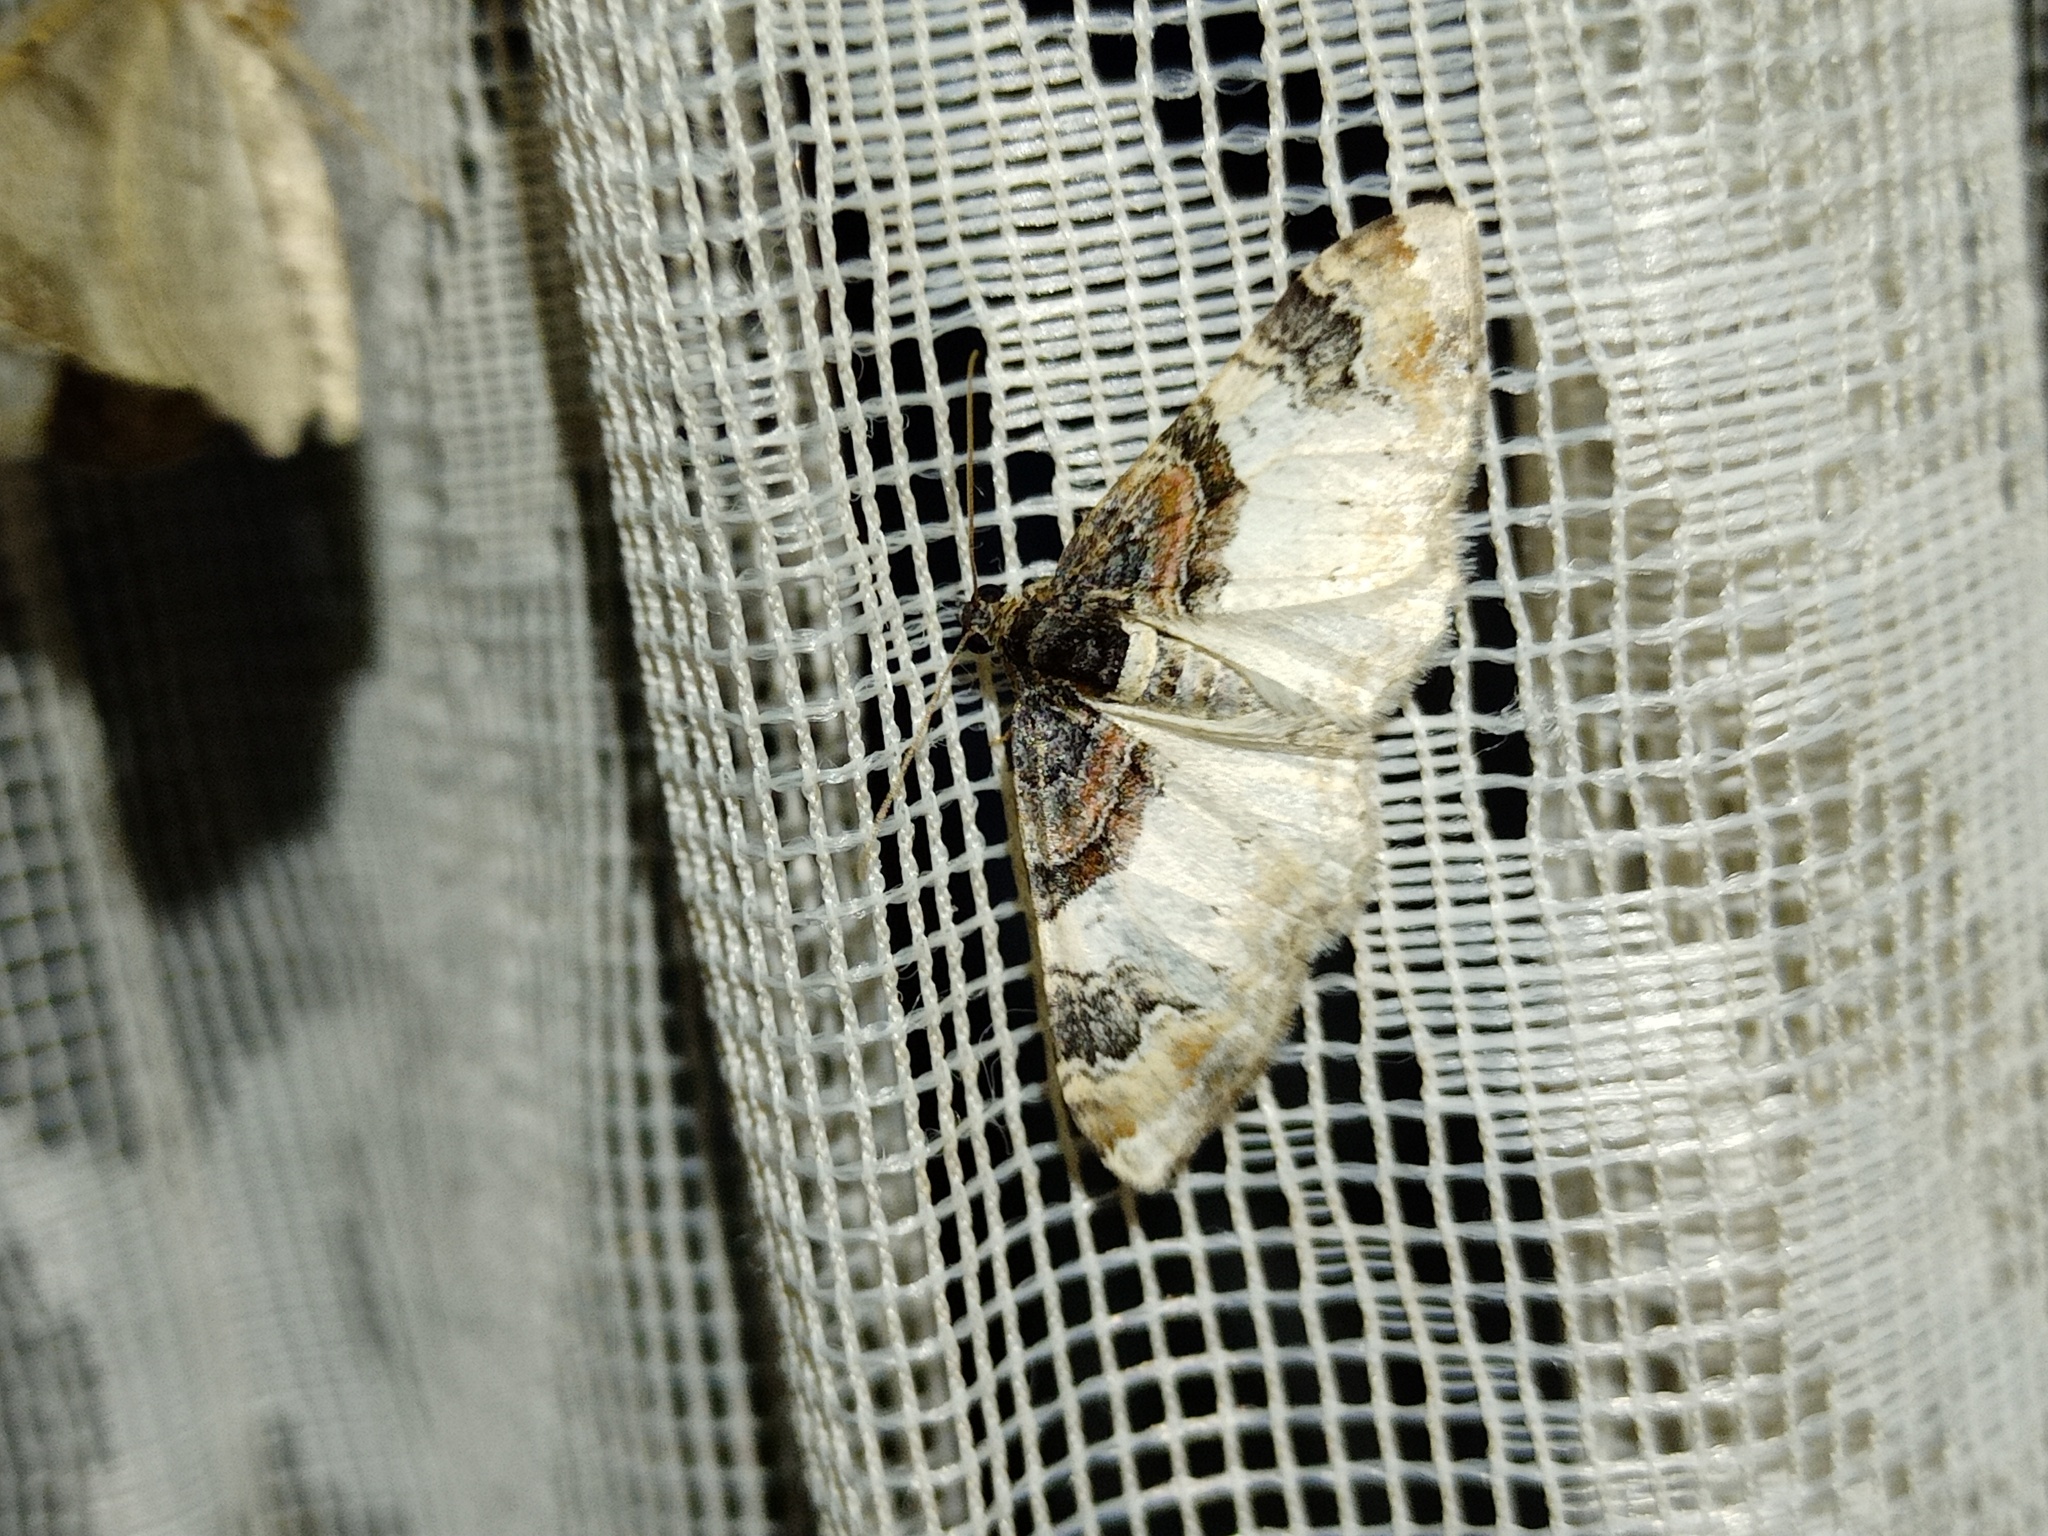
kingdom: Animalia
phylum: Arthropoda
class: Insecta
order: Lepidoptera
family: Geometridae
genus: Catarhoe
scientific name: Catarhoe cuculata
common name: Royal mantle
